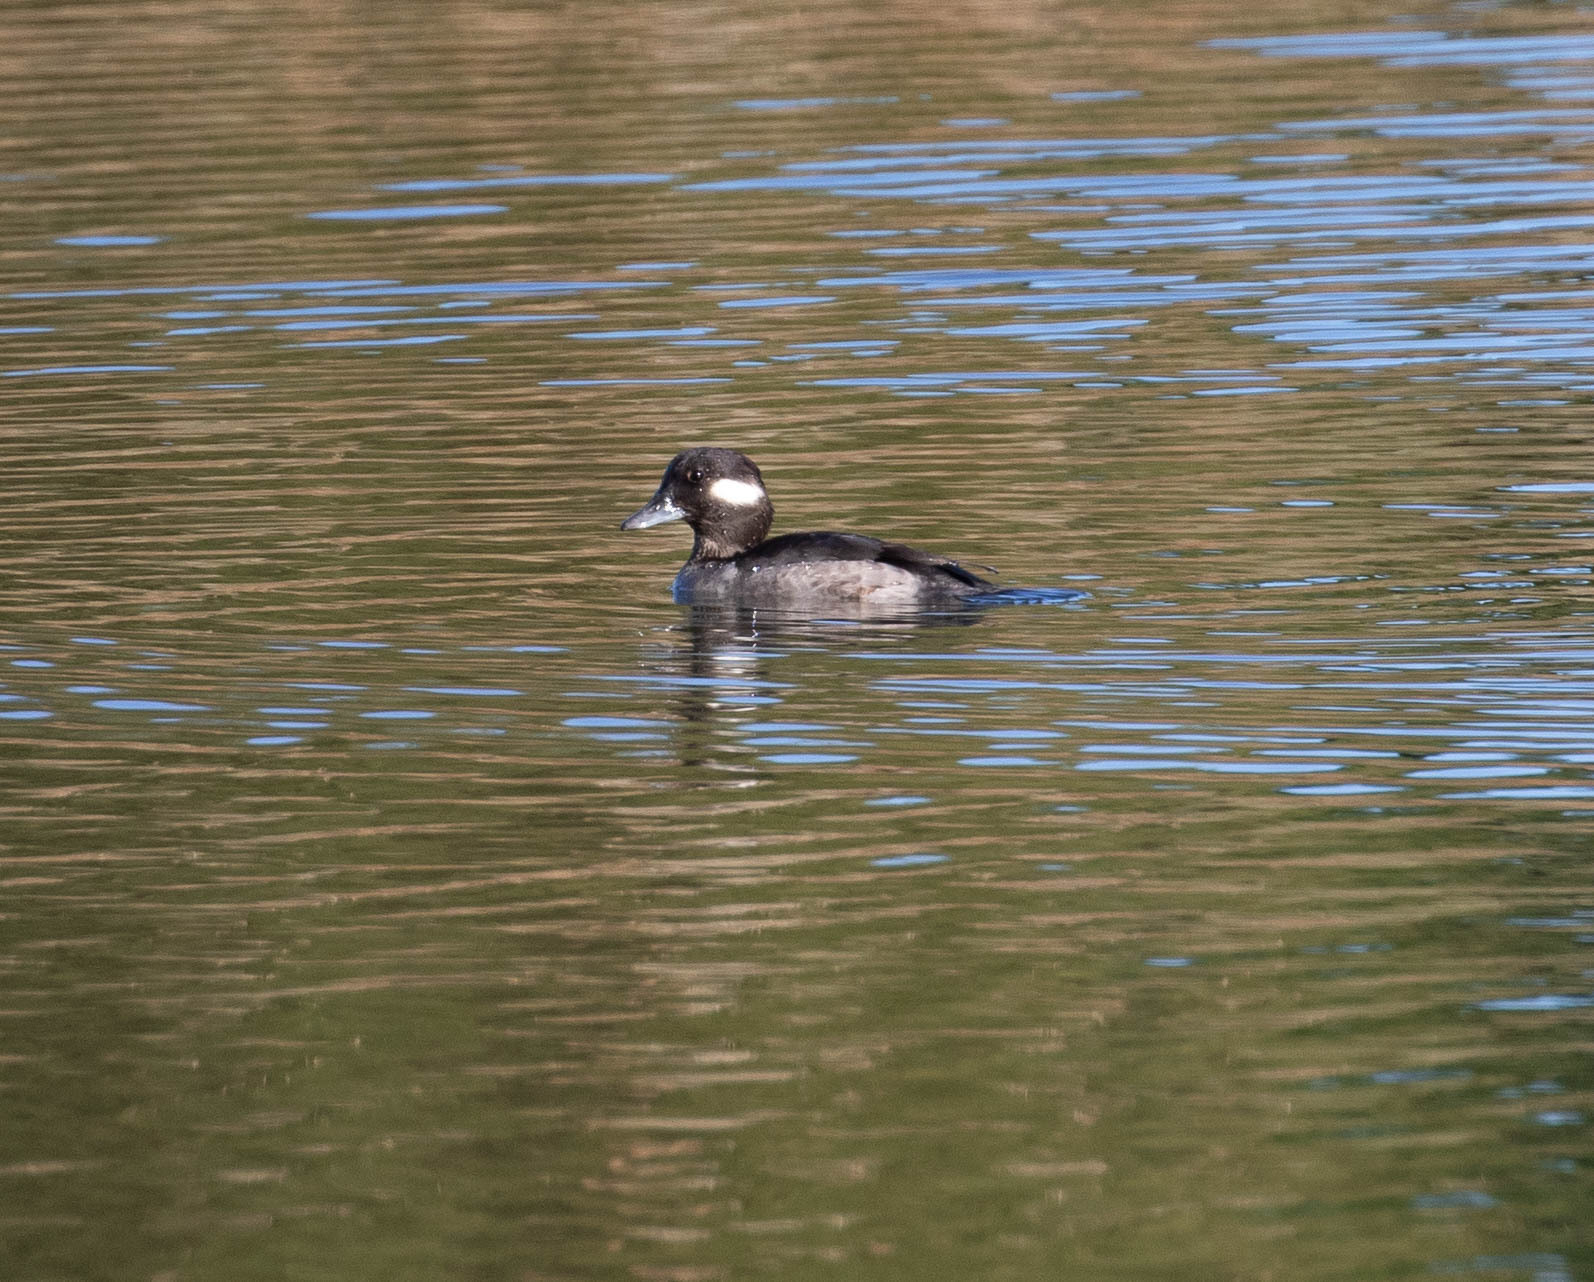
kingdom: Animalia
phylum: Chordata
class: Aves
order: Anseriformes
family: Anatidae
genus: Bucephala
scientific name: Bucephala albeola
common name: Bufflehead
